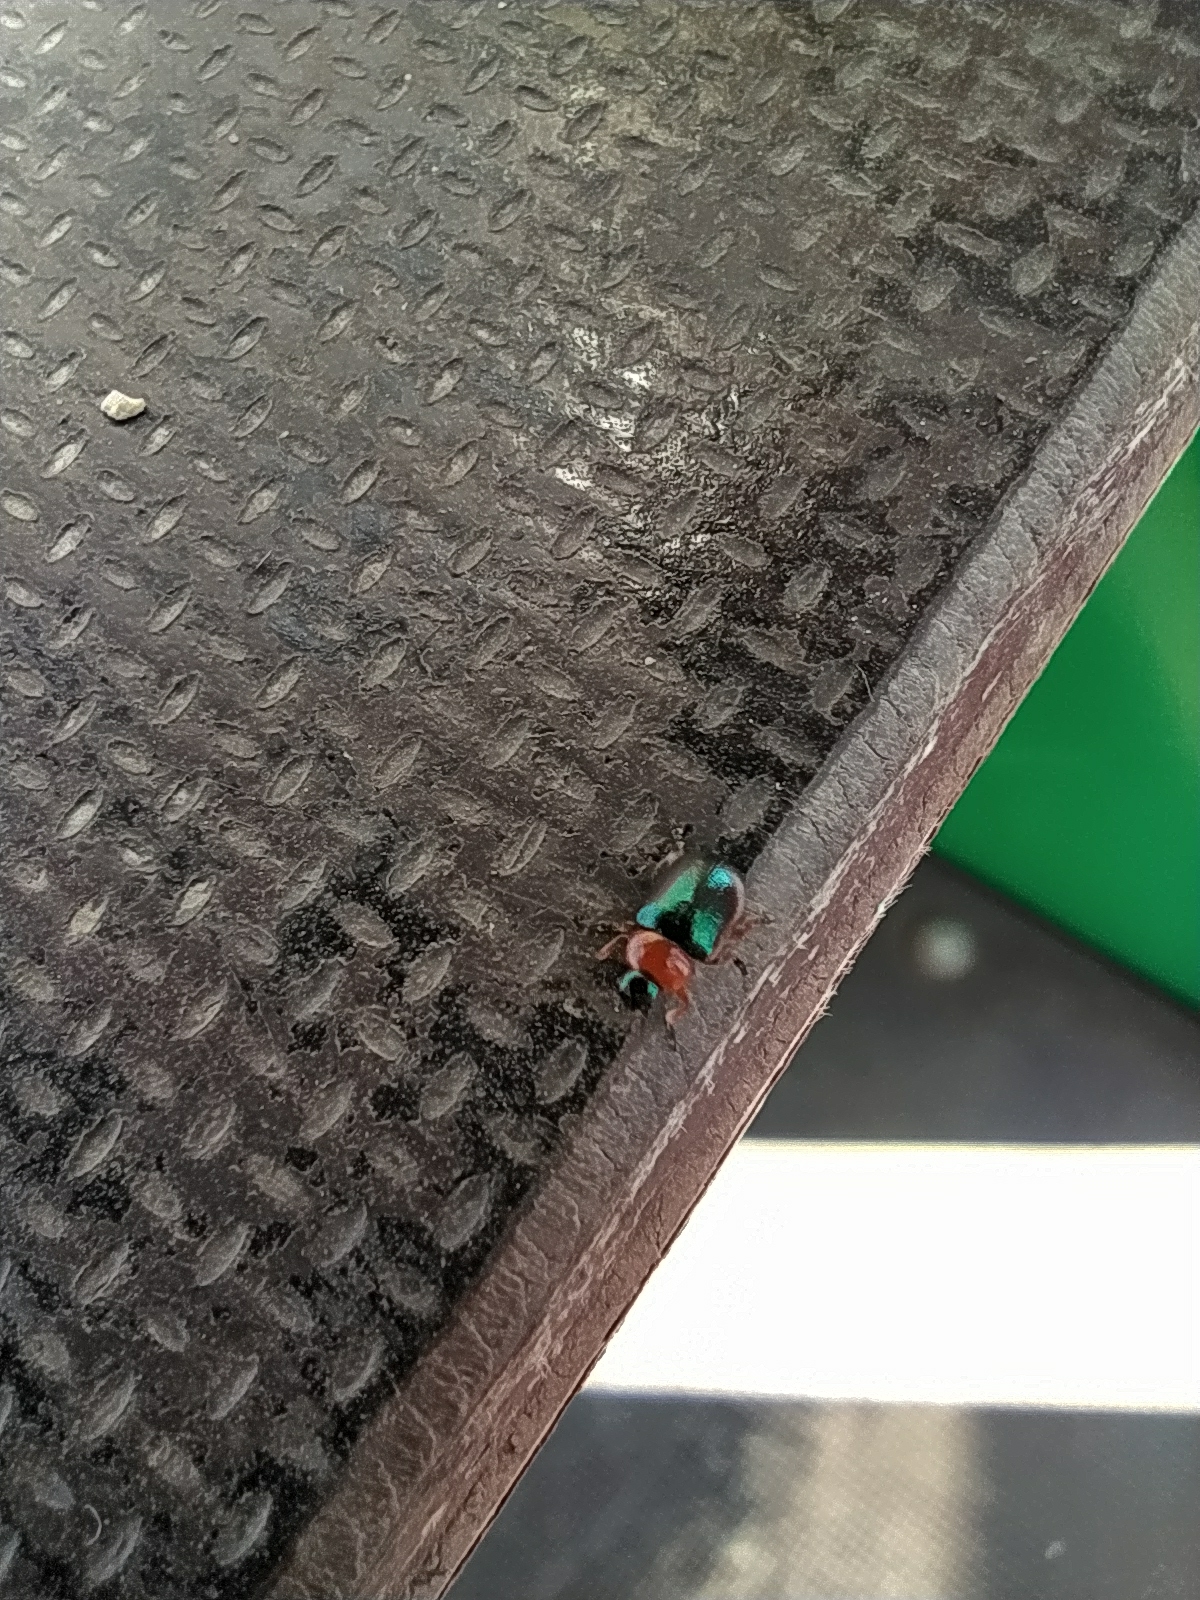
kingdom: Animalia
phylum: Arthropoda
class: Insecta
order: Coleoptera
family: Chrysomelidae
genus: Gastrophysa
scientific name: Gastrophysa polygoni
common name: Knotweed leaf beetle
